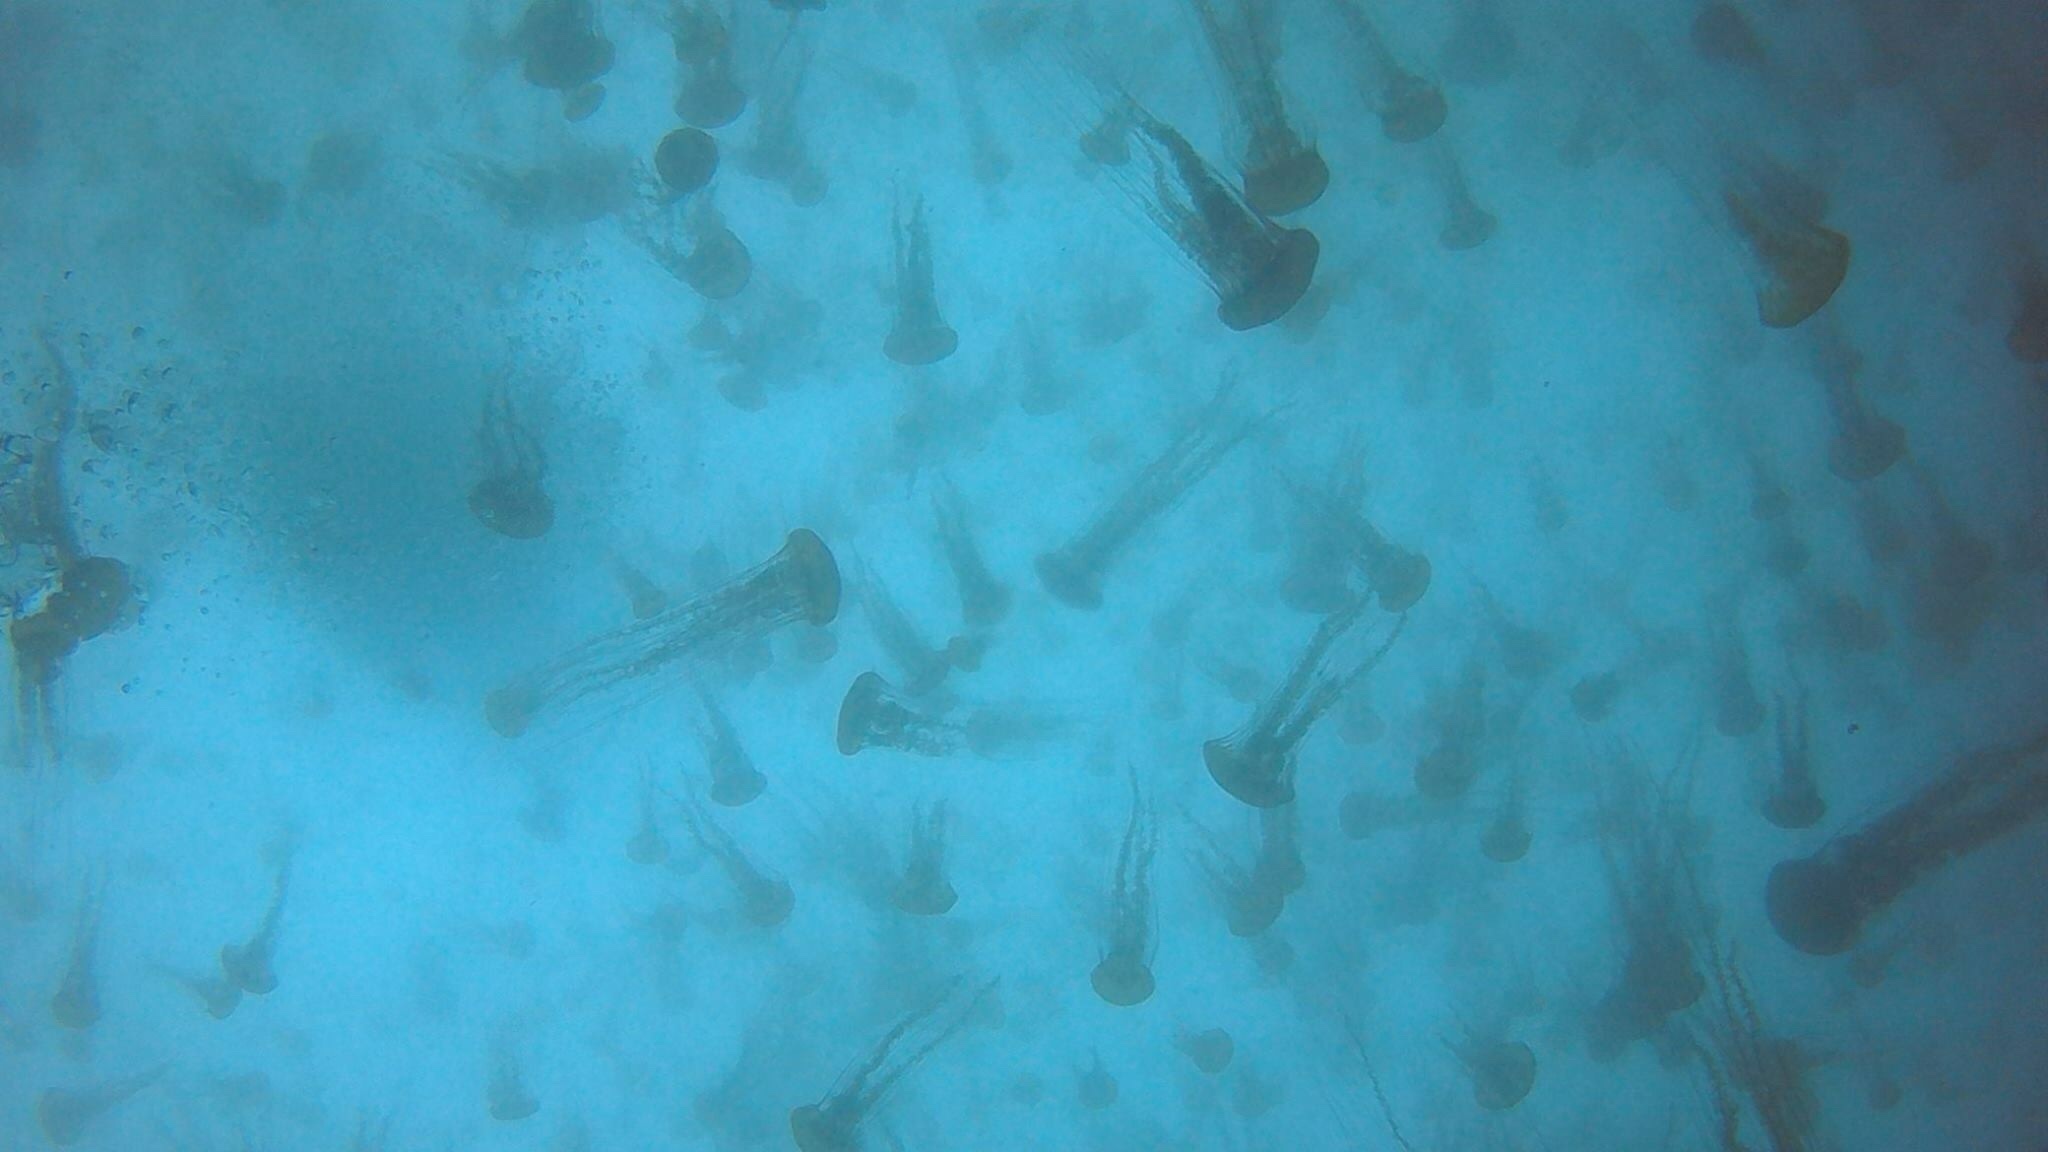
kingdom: Animalia
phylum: Cnidaria
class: Scyphozoa
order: Semaeostomeae
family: Pelagiidae
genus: Chrysaora
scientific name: Chrysaora fuscescens
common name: Sea nettle
